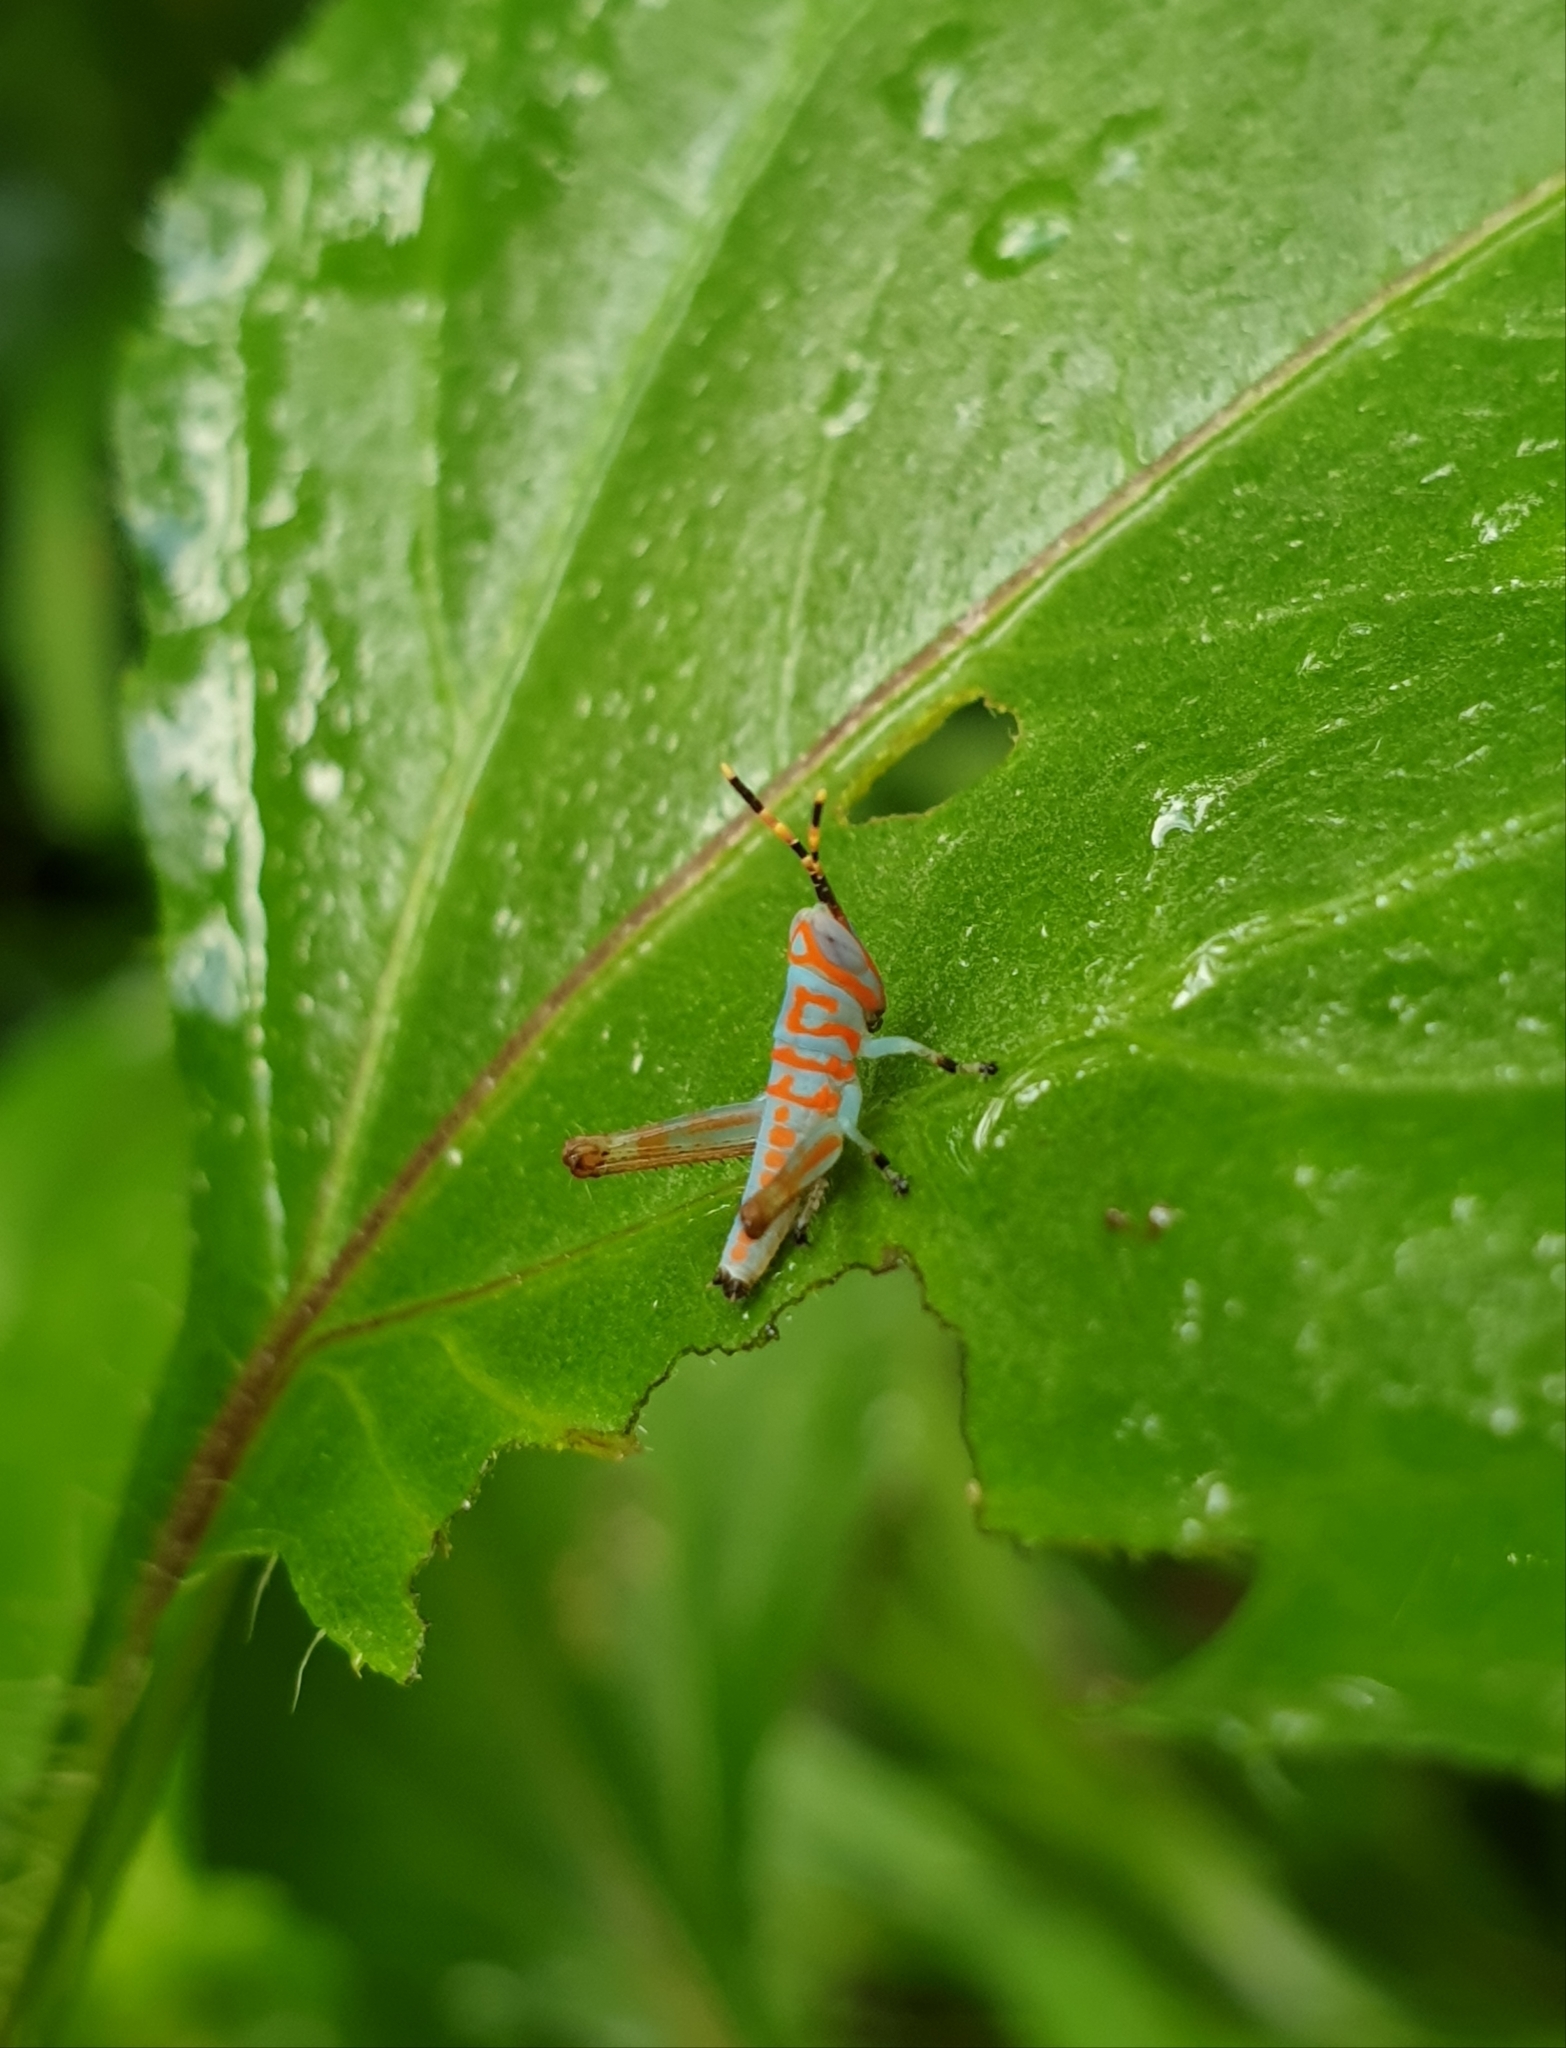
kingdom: Animalia
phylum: Arthropoda
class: Insecta
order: Orthoptera
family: Acrididae
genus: Pirithoicus
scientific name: Pirithoicus ophthalmicus
